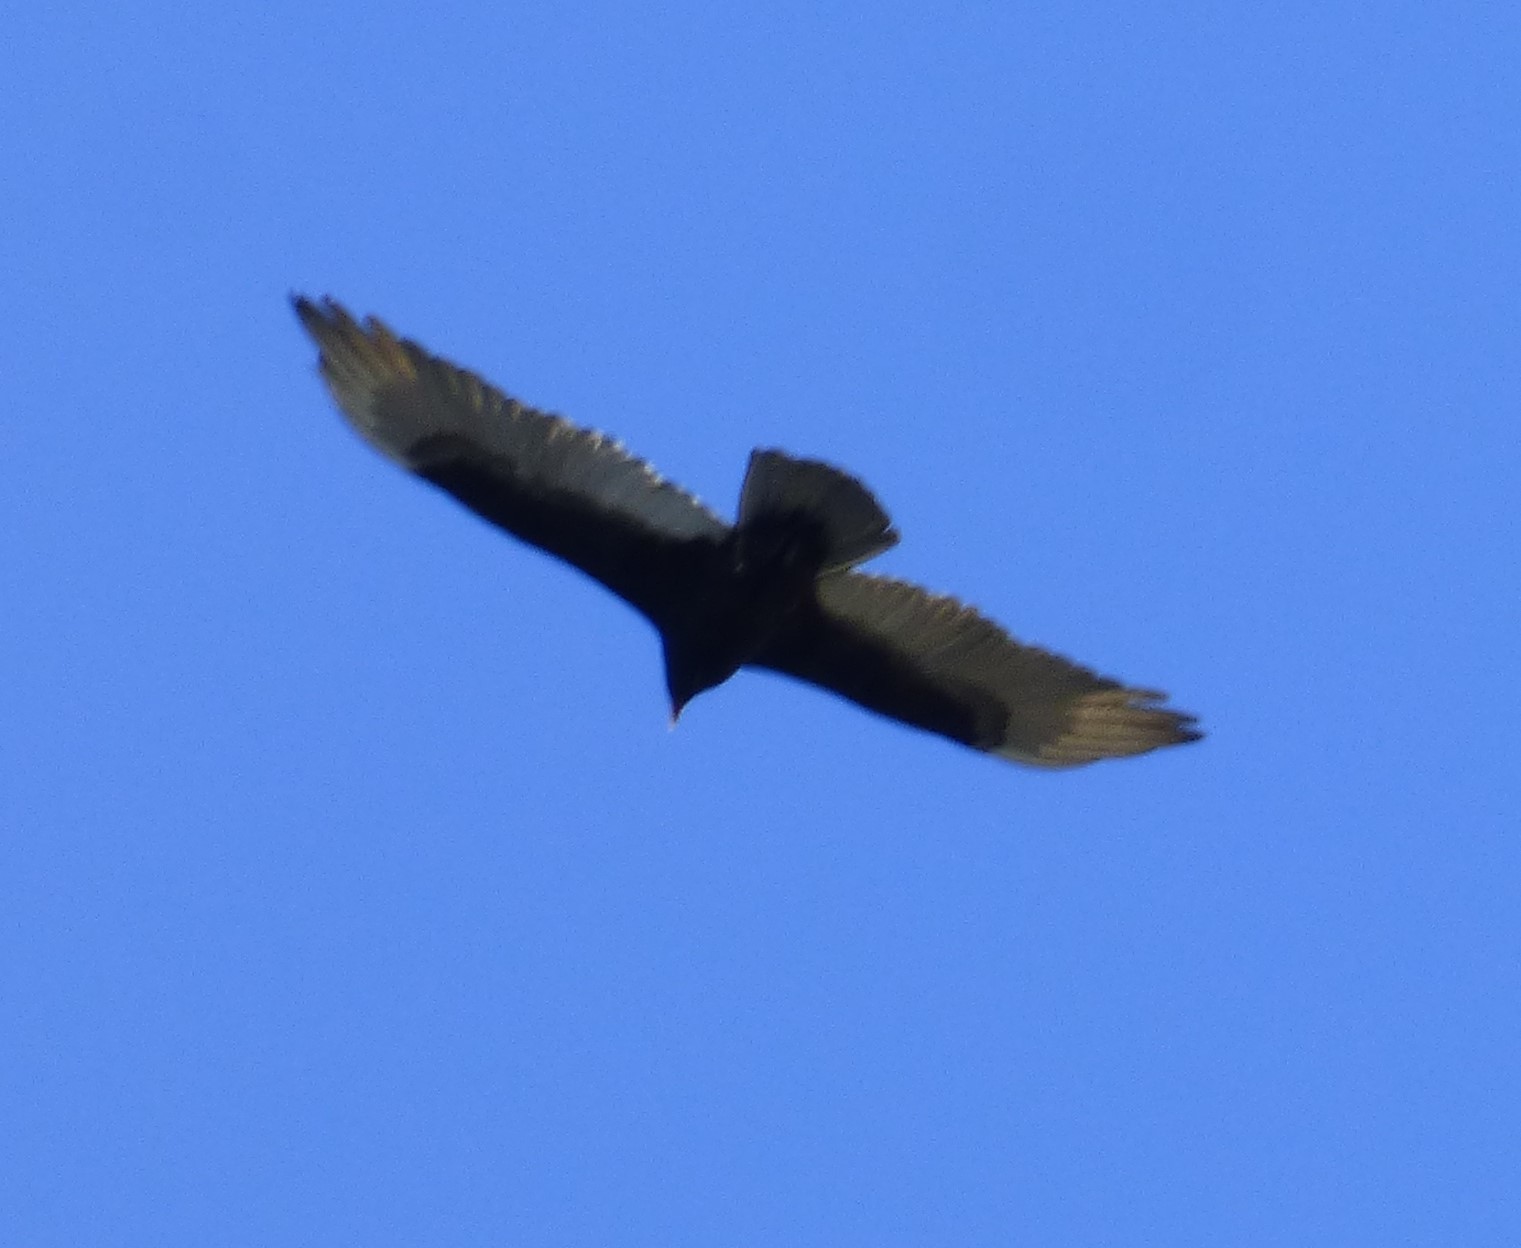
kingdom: Animalia
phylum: Chordata
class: Aves
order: Accipitriformes
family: Cathartidae
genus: Cathartes
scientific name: Cathartes aura
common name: Turkey vulture
